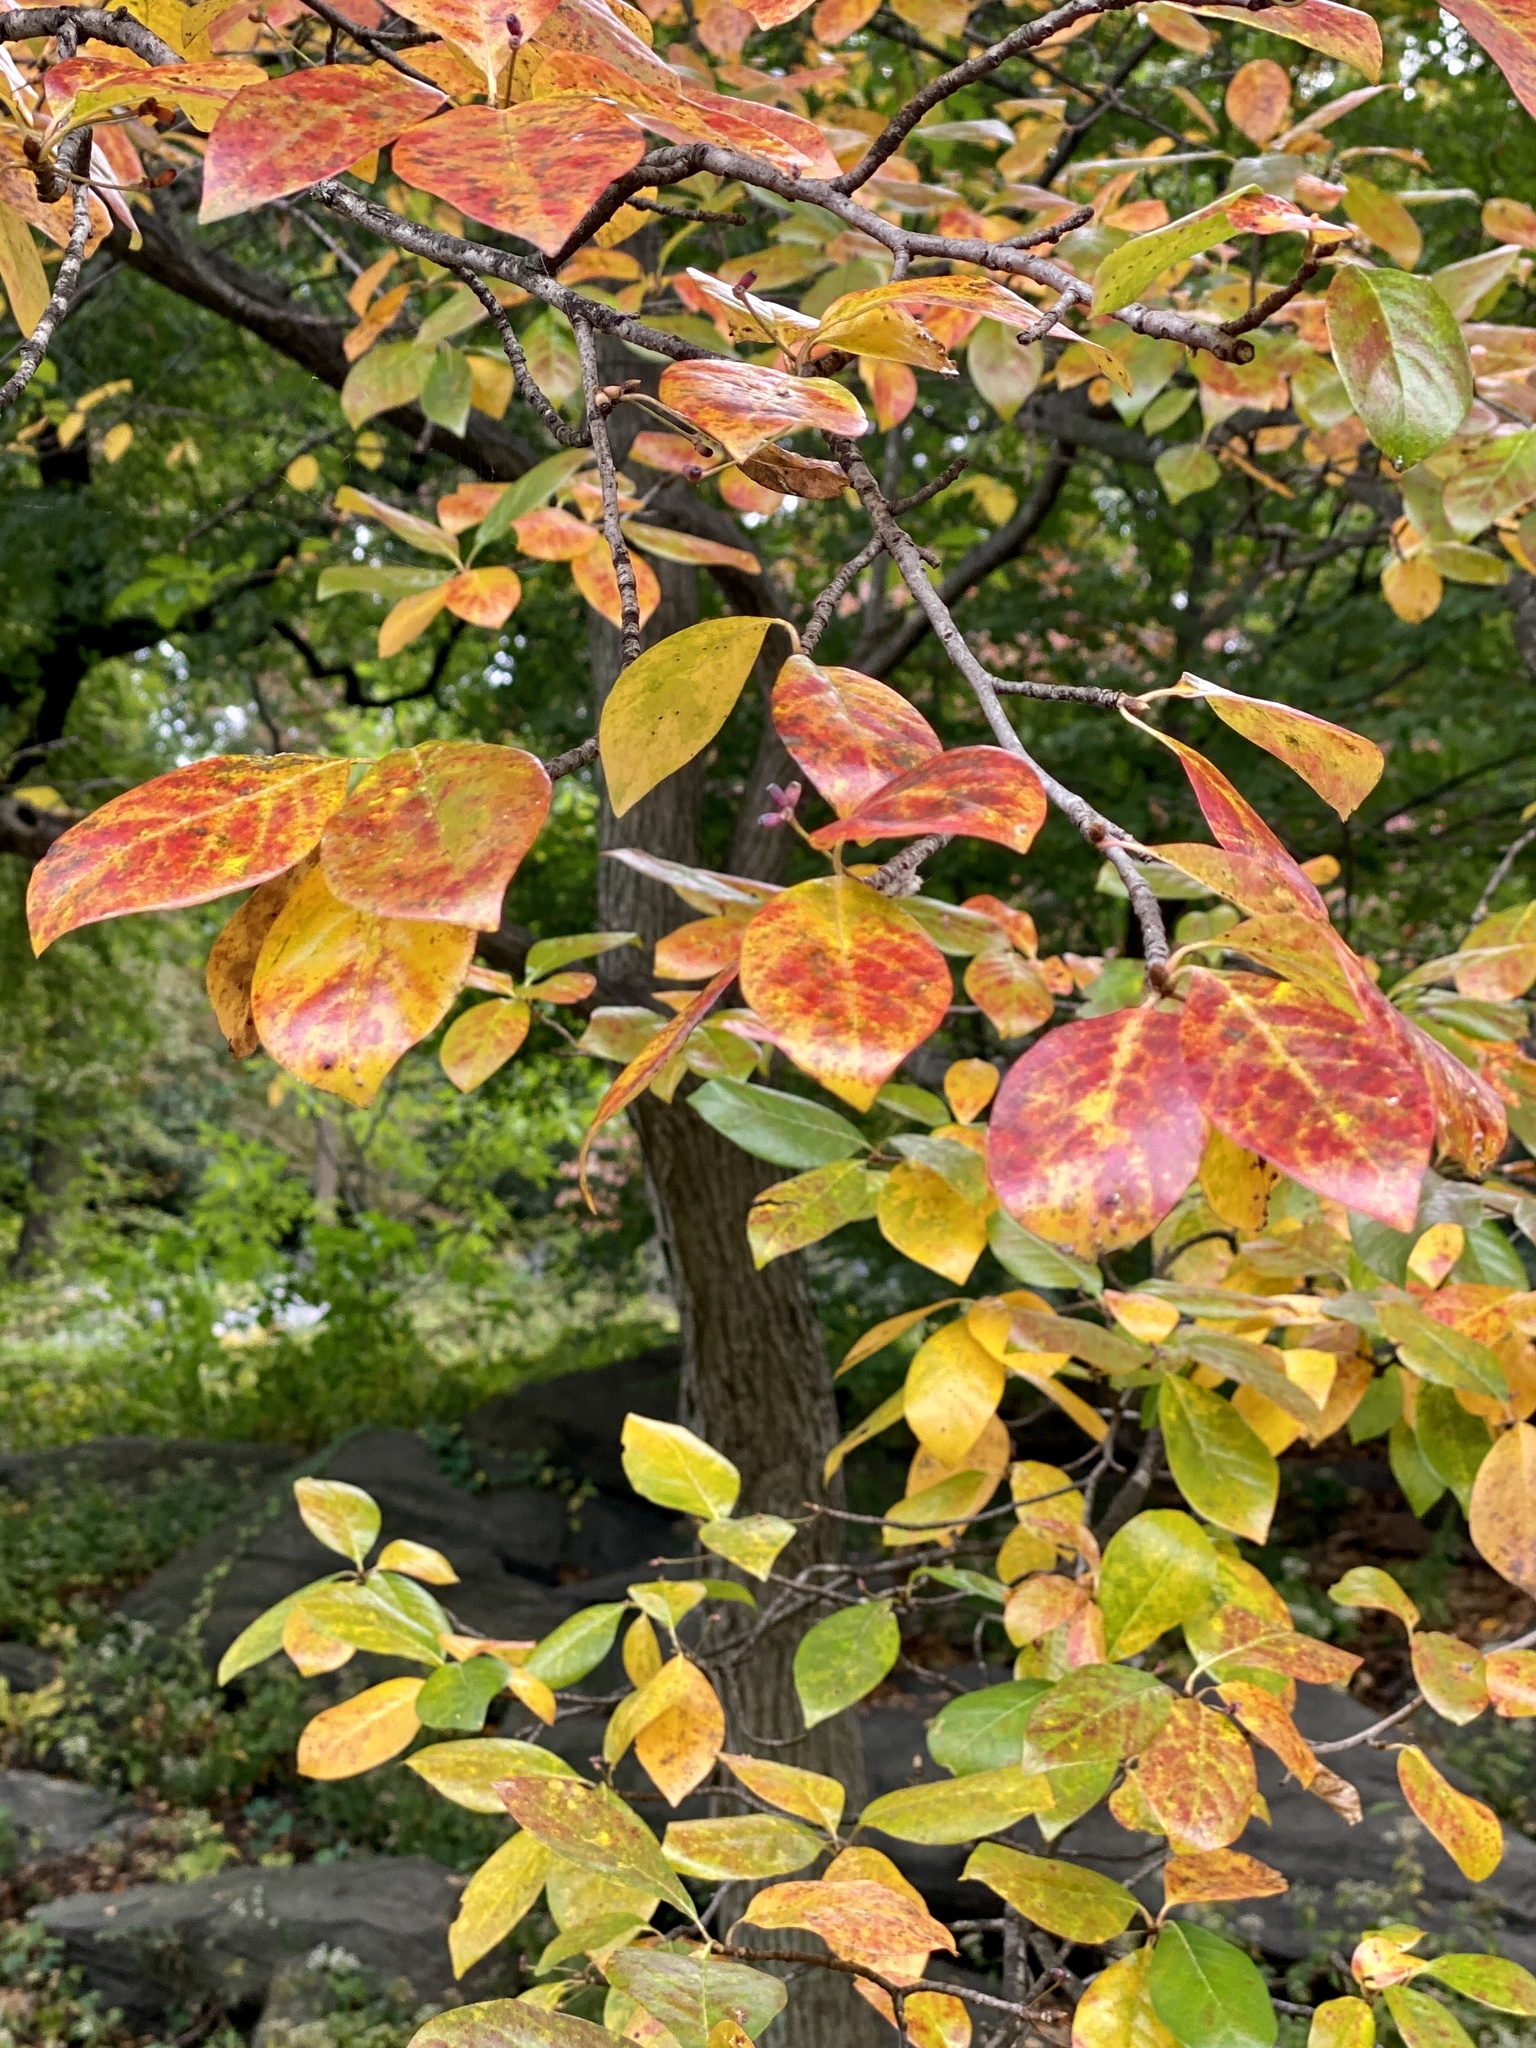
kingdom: Plantae
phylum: Tracheophyta
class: Magnoliopsida
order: Cornales
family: Nyssaceae
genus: Nyssa
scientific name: Nyssa sylvatica
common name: Black tupelo
